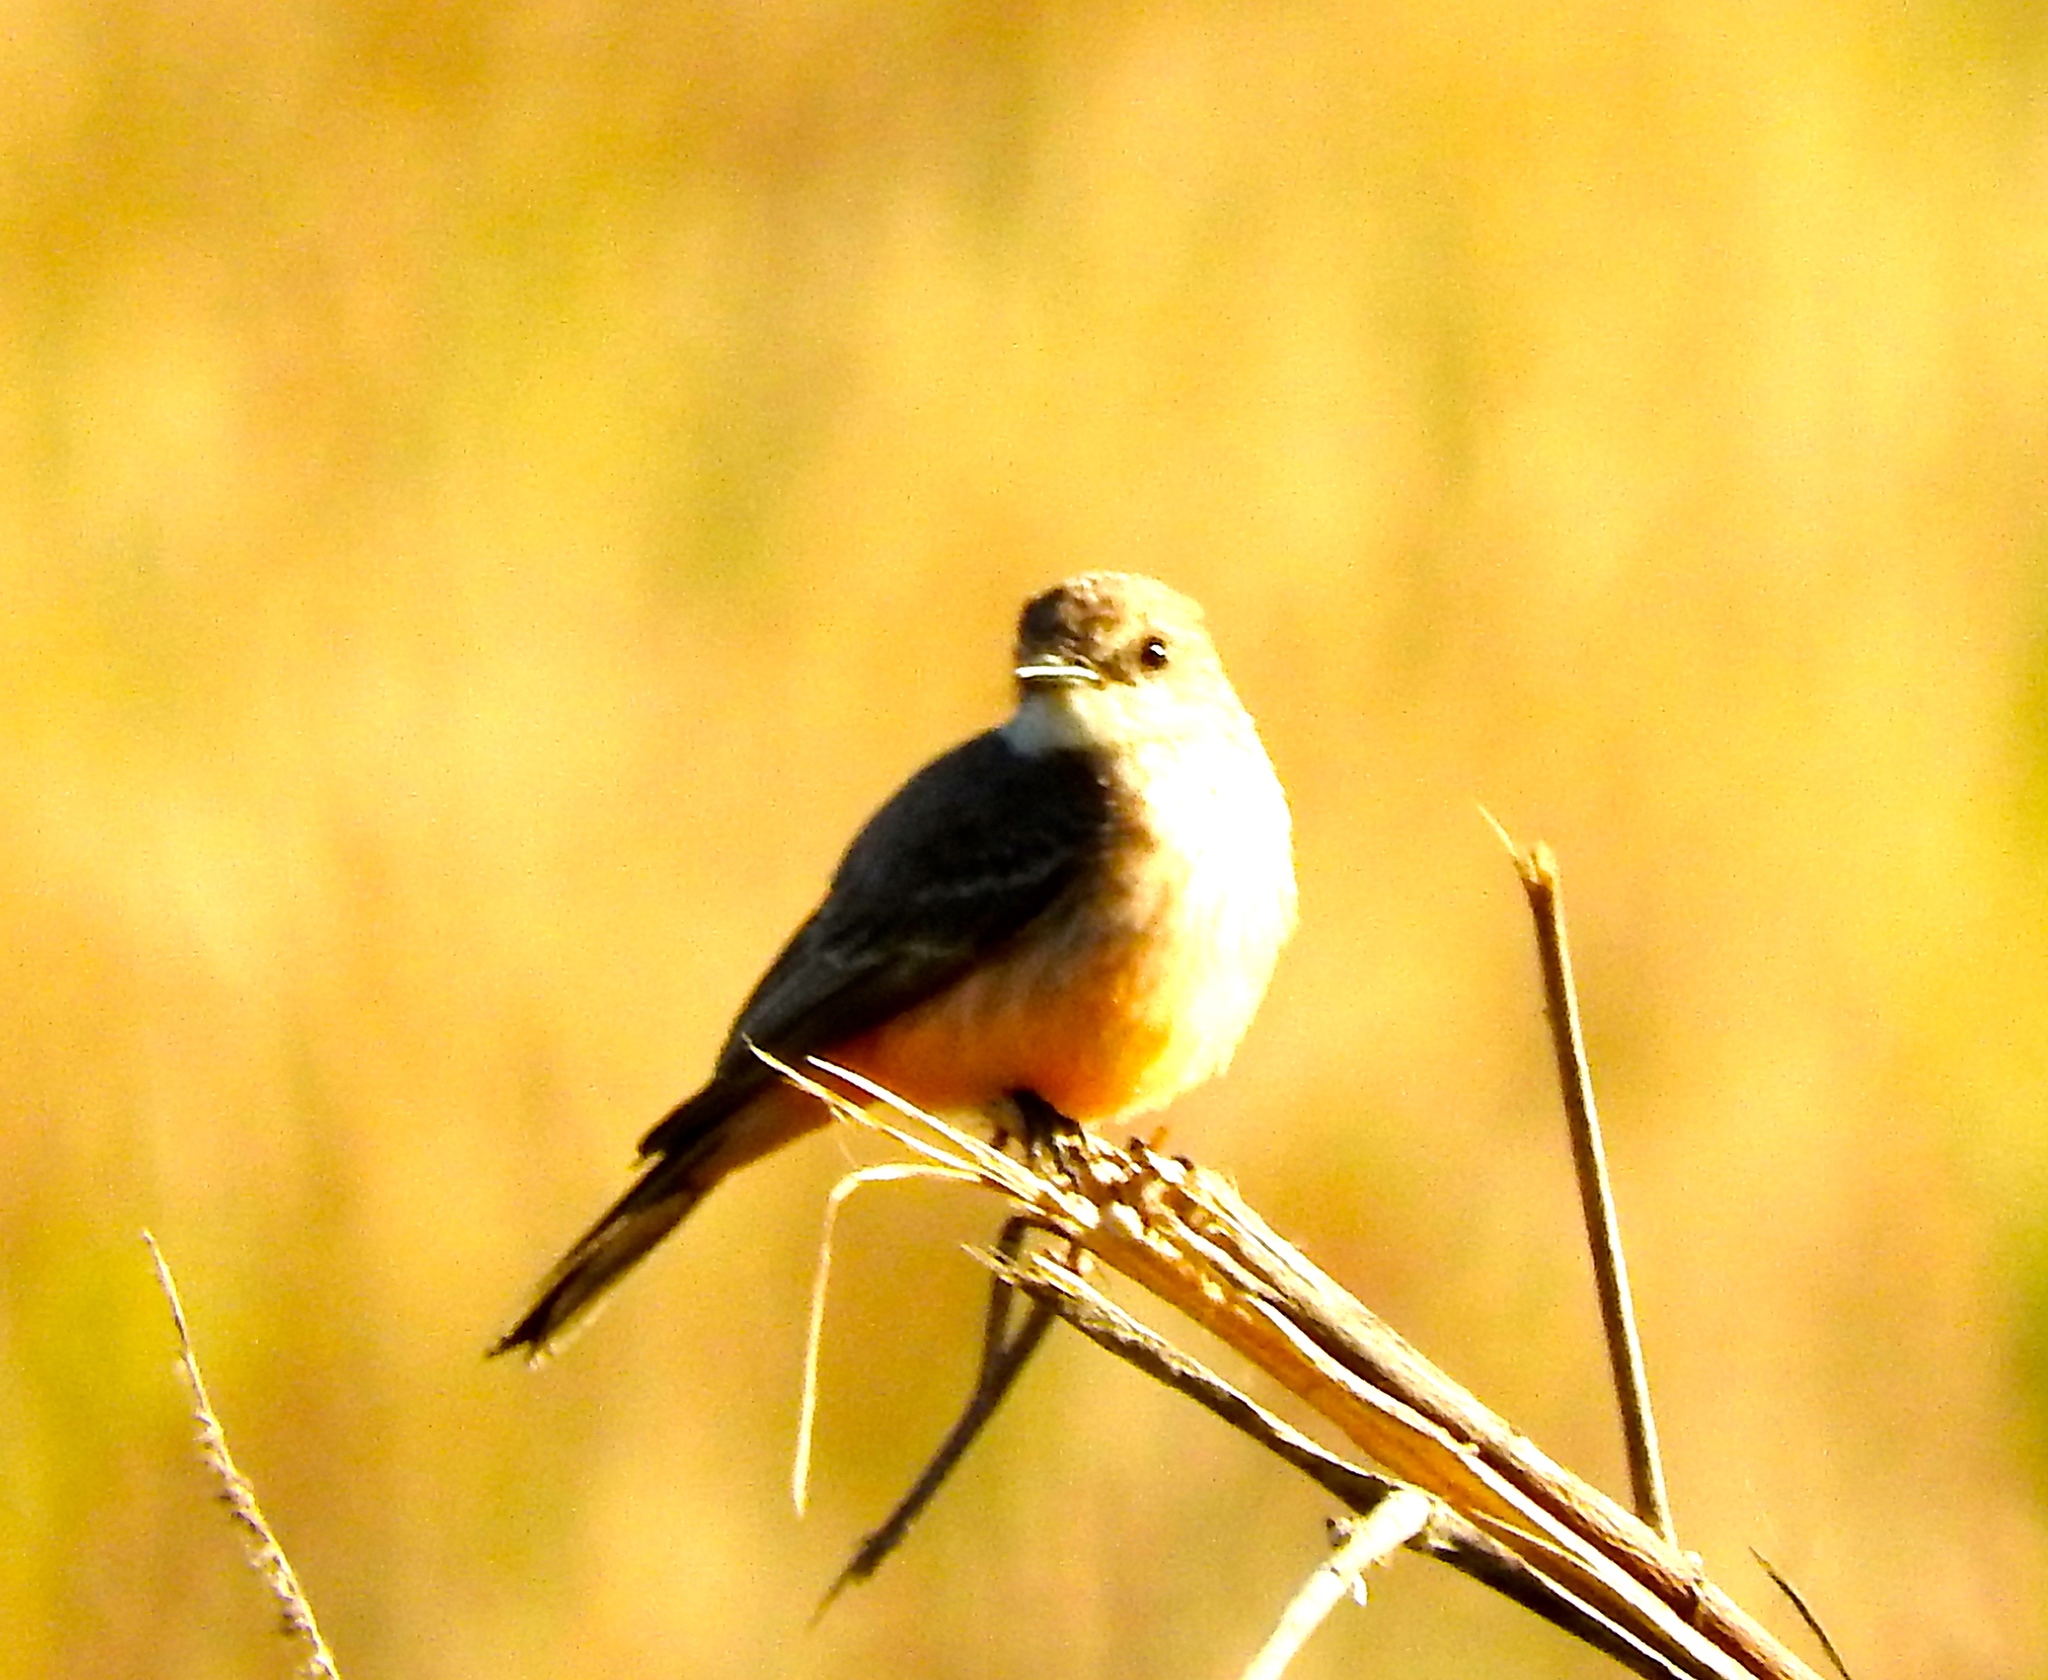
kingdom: Animalia
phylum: Chordata
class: Aves
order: Passeriformes
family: Tyrannidae
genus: Pyrocephalus
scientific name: Pyrocephalus rubinus
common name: Vermilion flycatcher
